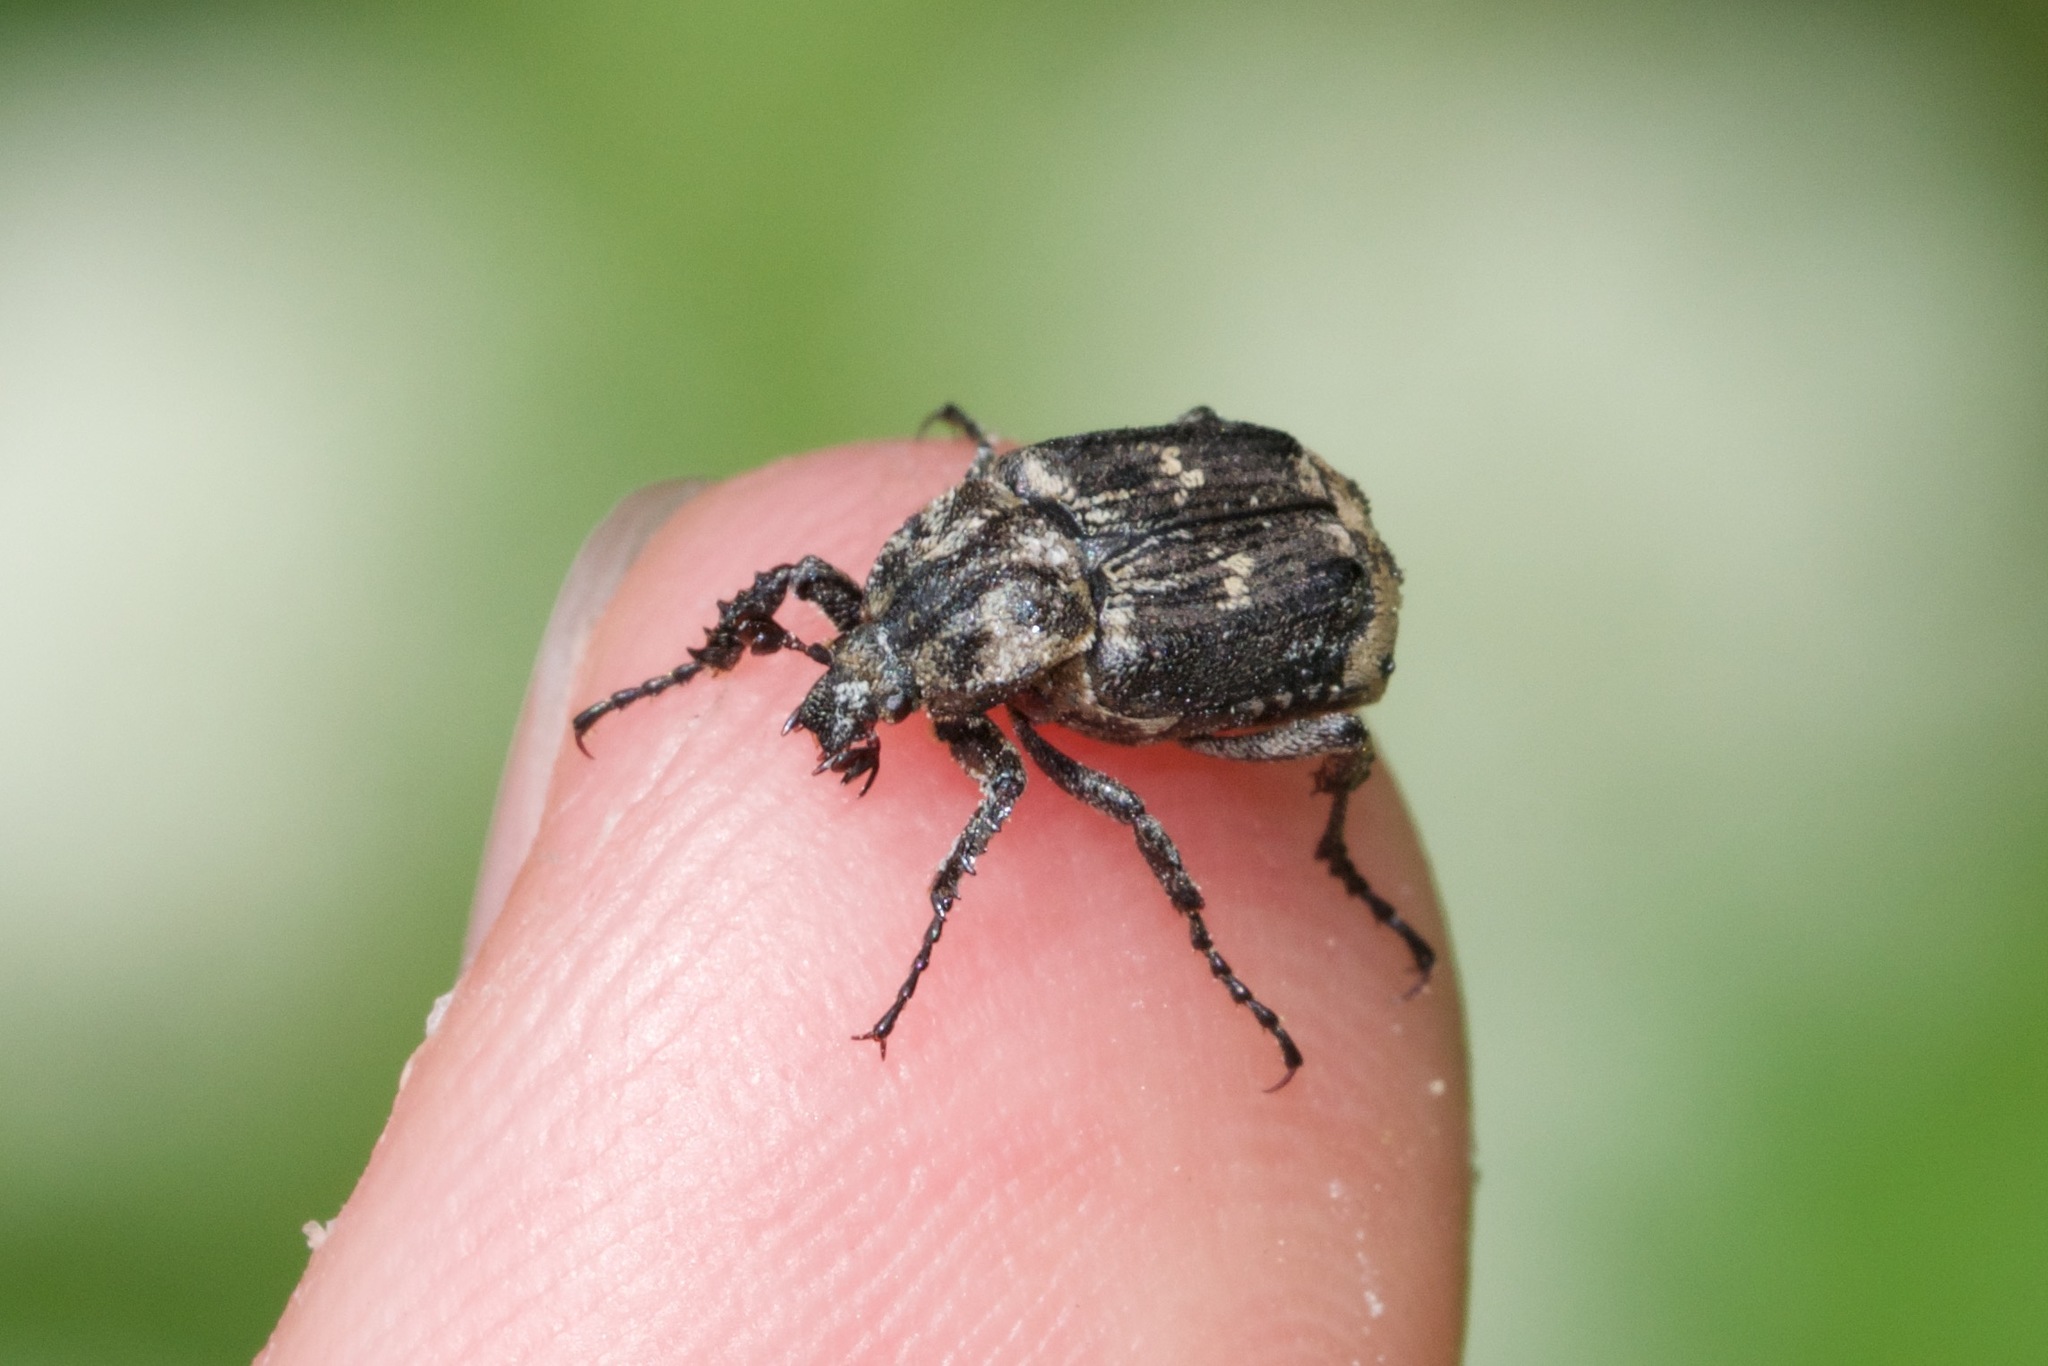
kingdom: Animalia
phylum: Arthropoda
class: Insecta
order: Coleoptera
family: Scarabaeidae
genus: Valgus
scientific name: Valgus hemipterus
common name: Bug flower chafer
